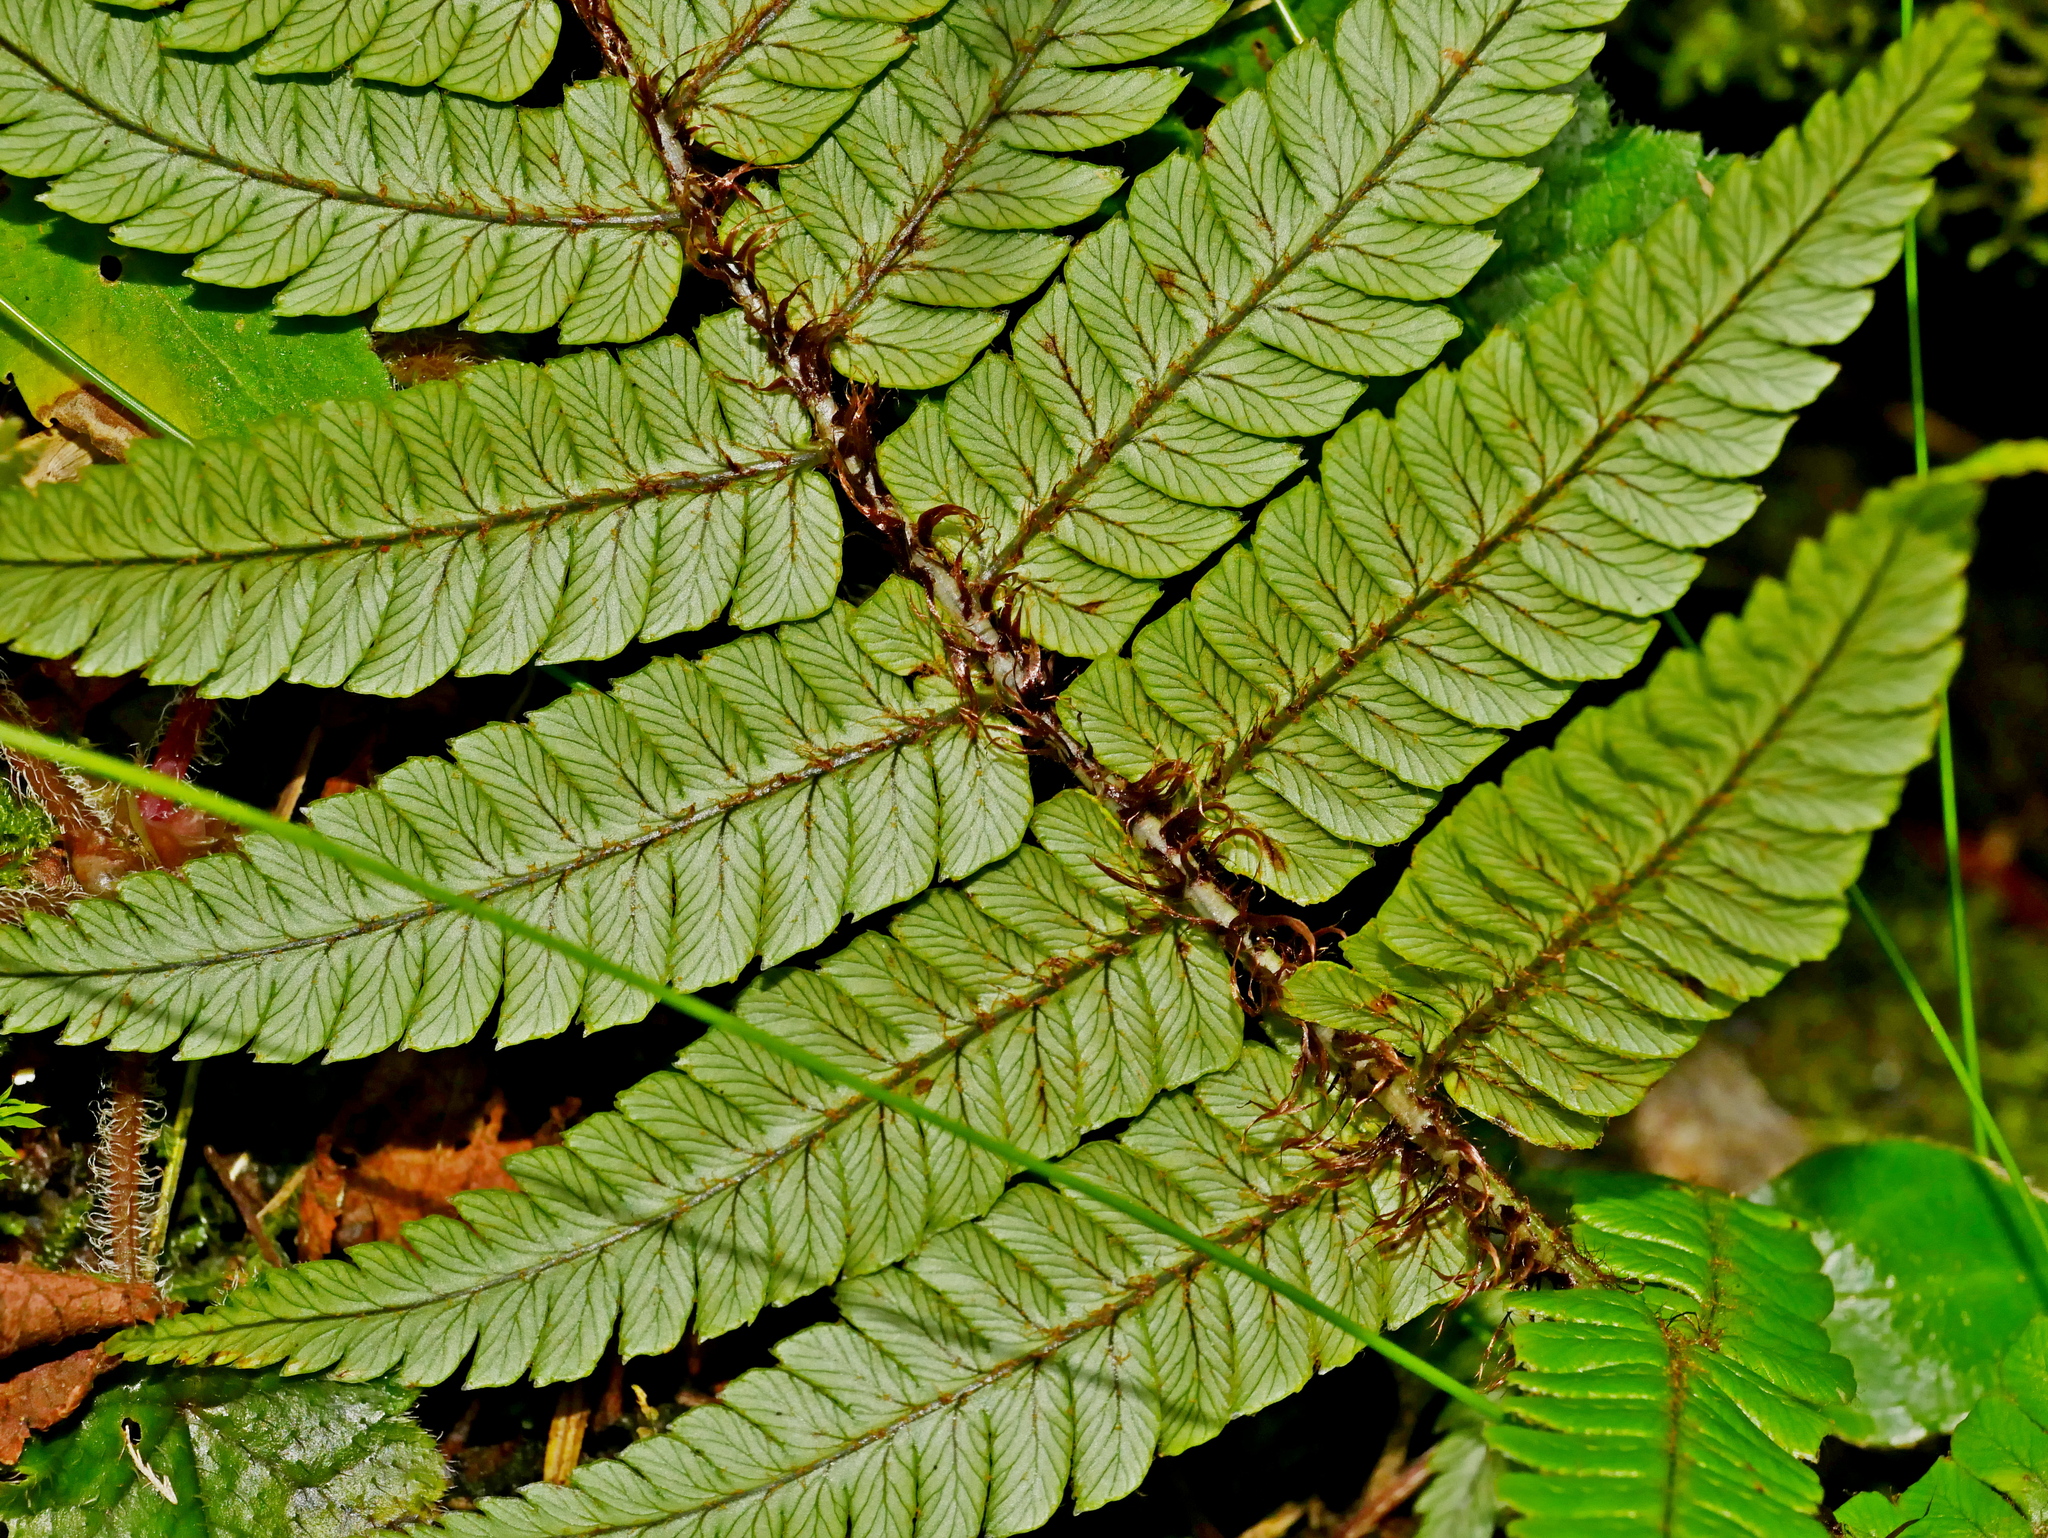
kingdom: Plantae
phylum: Tracheophyta
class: Polypodiopsida
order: Polypodiales
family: Dryopteridaceae
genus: Dryopteris
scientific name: Dryopteris lepidopoda
